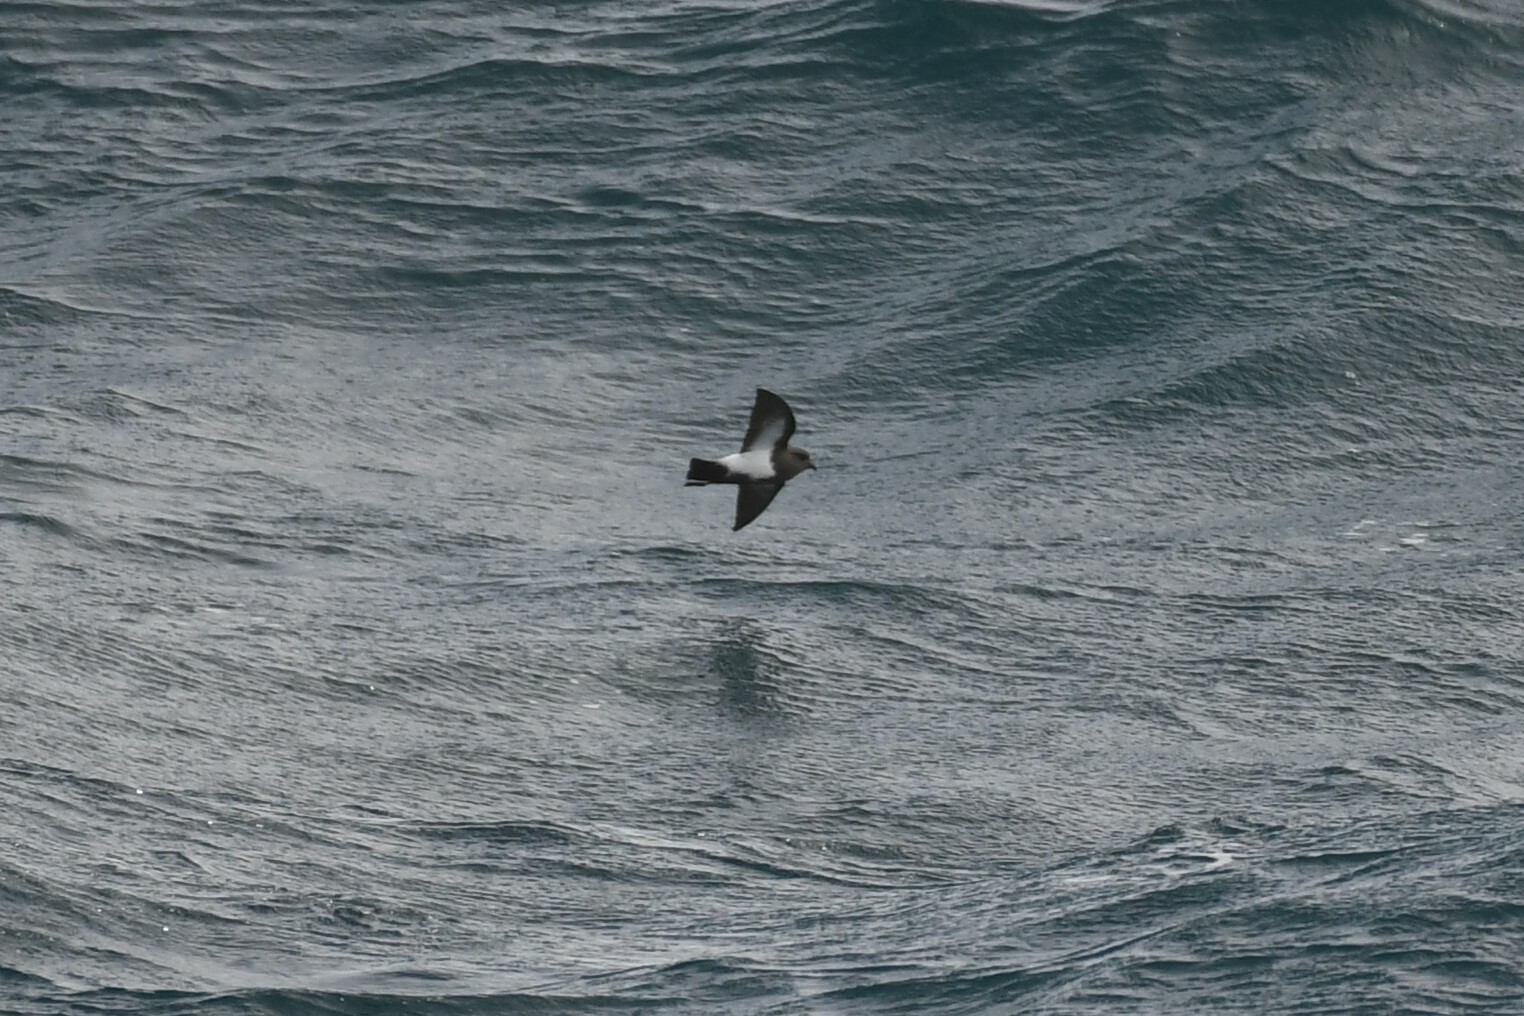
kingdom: Animalia
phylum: Chordata
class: Aves
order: Procellariiformes
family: Hydrobatidae
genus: Fregetta
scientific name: Fregetta tropica
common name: Black-bellied storm-petrel
